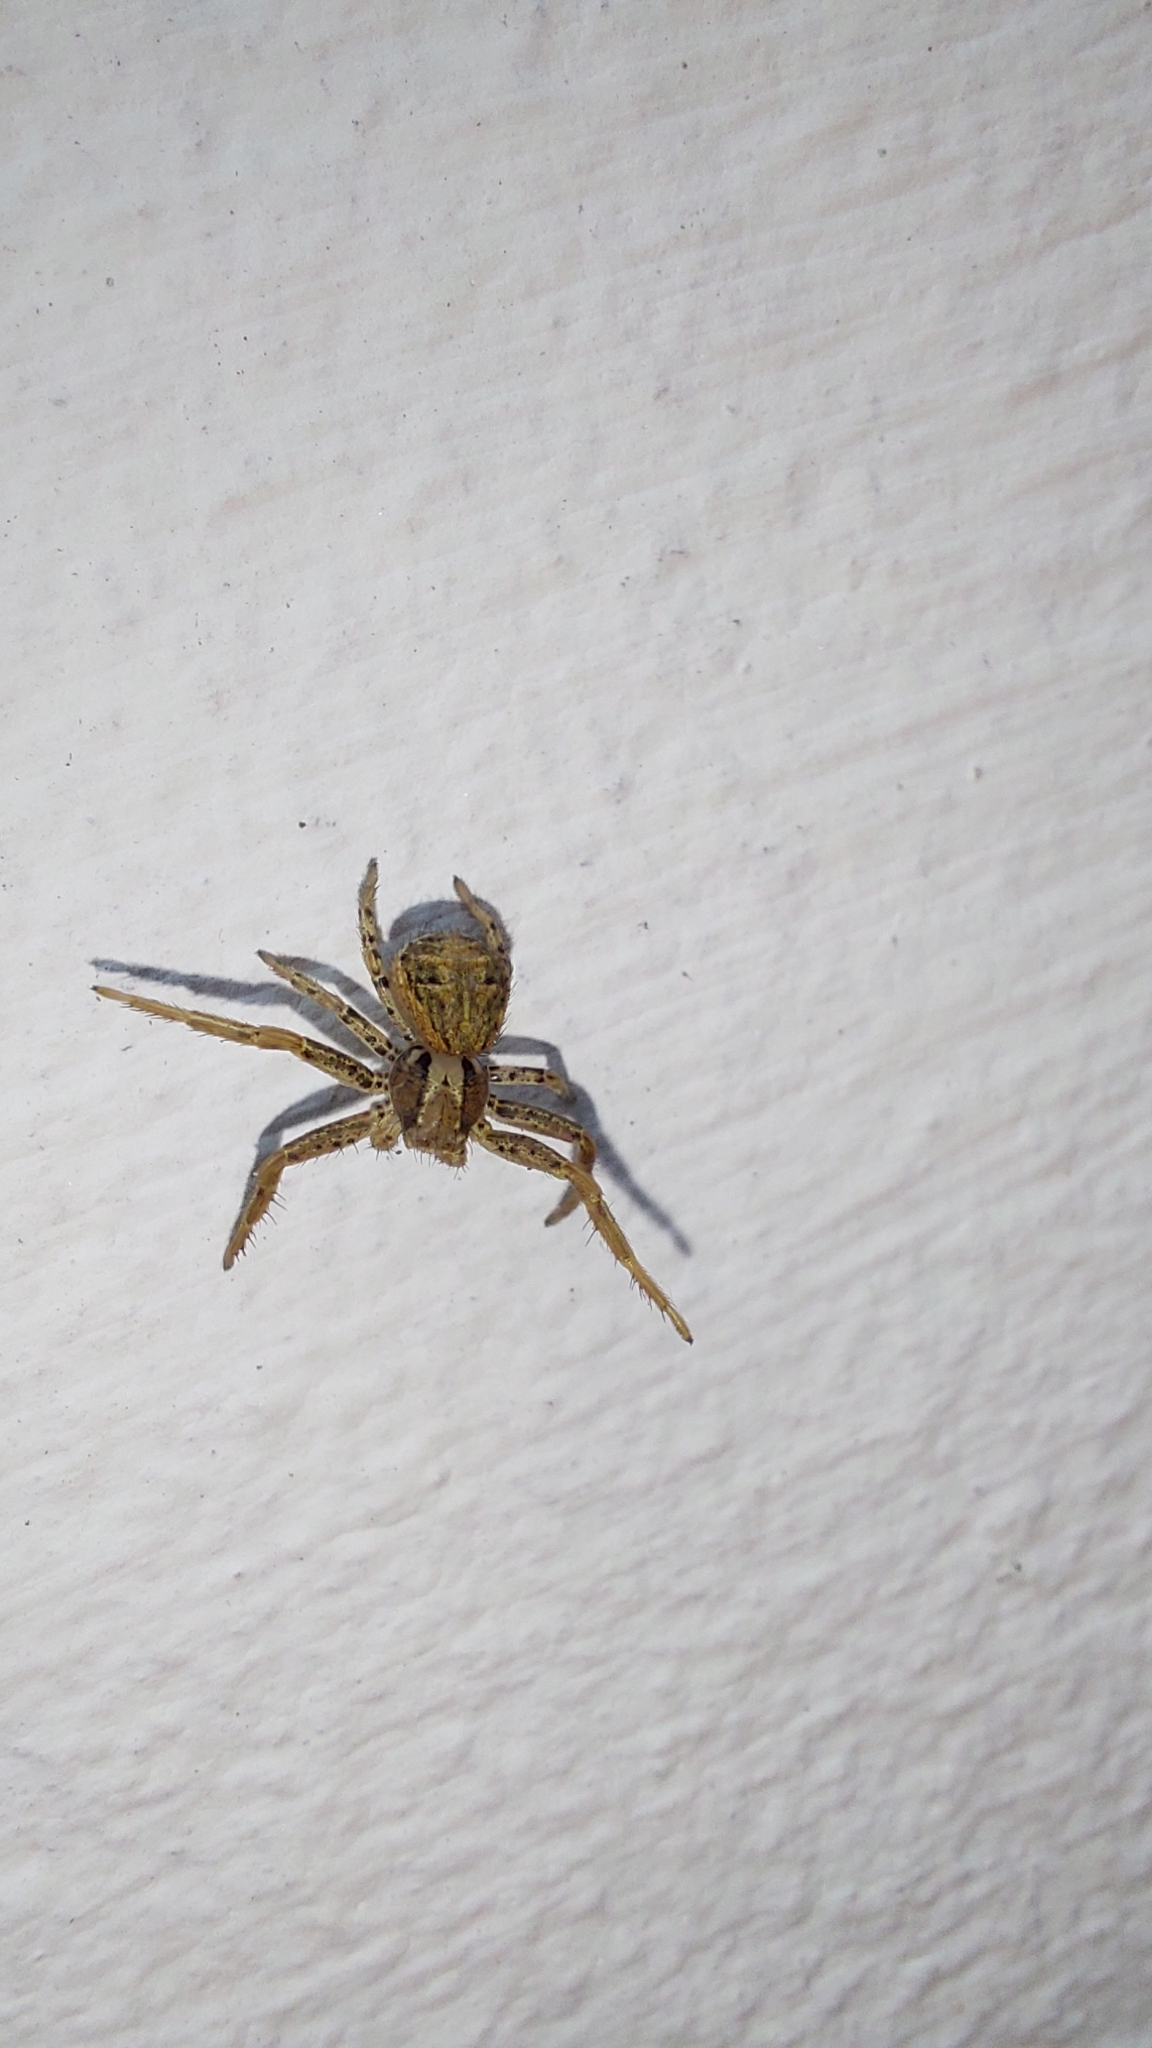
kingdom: Animalia
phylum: Arthropoda
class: Arachnida
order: Araneae
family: Thomisidae
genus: Xysticus
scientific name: Xysticus
